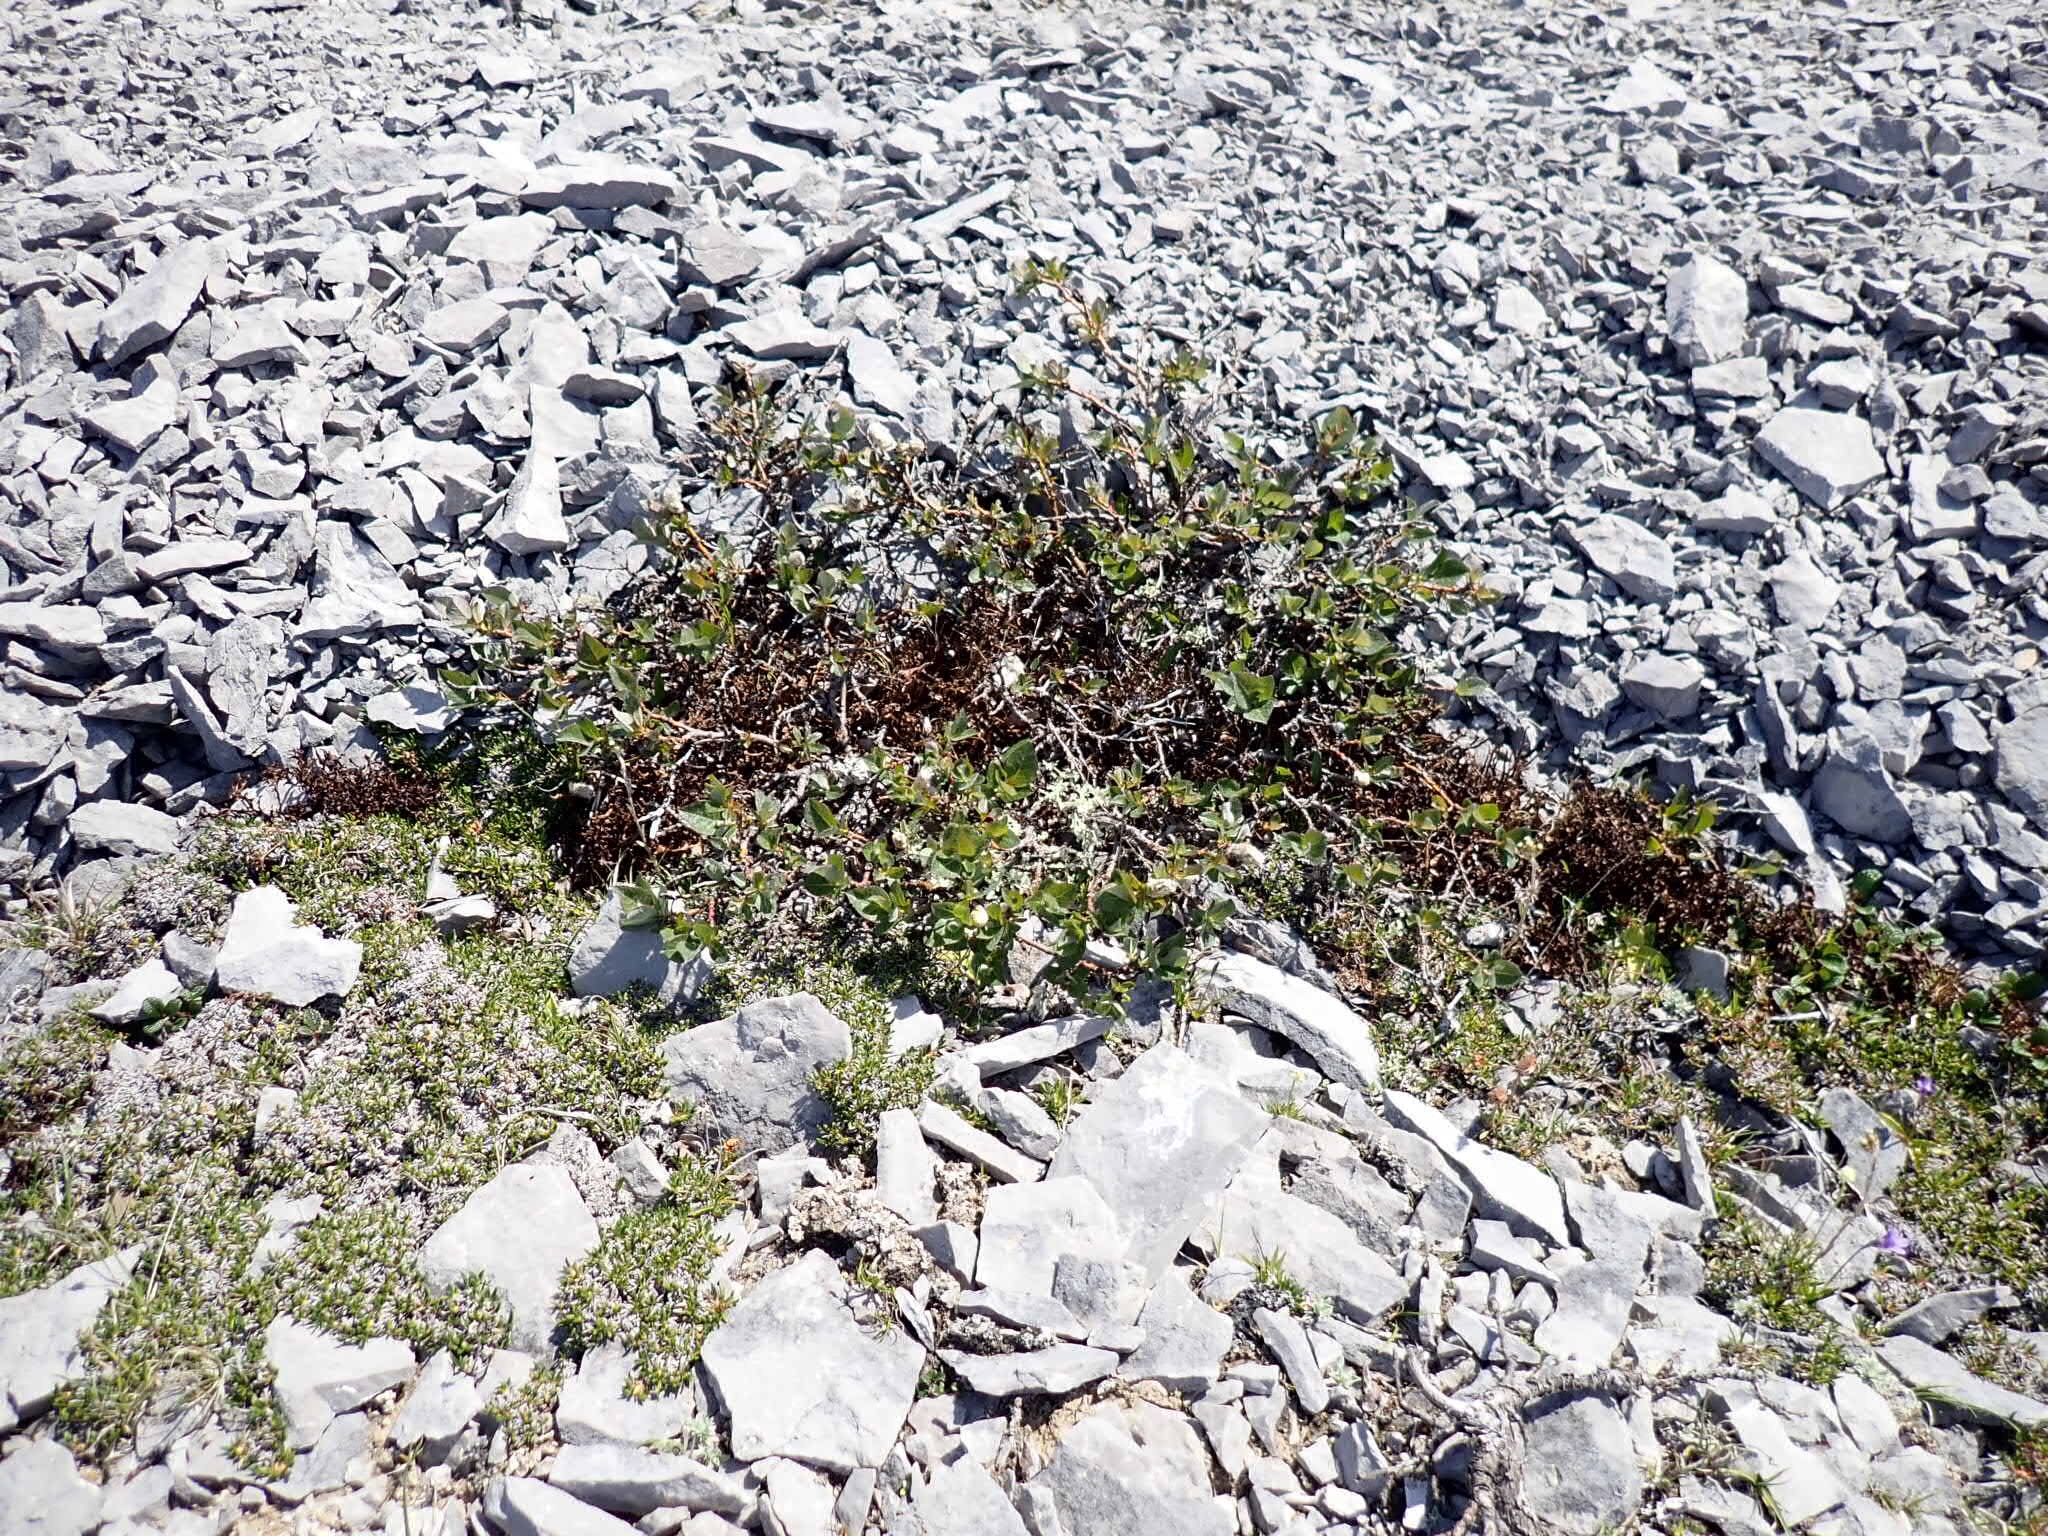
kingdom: Plantae
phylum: Tracheophyta
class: Magnoliopsida
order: Malpighiales
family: Salicaceae
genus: Salix
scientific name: Salix calcicola
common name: Calcareous willow
